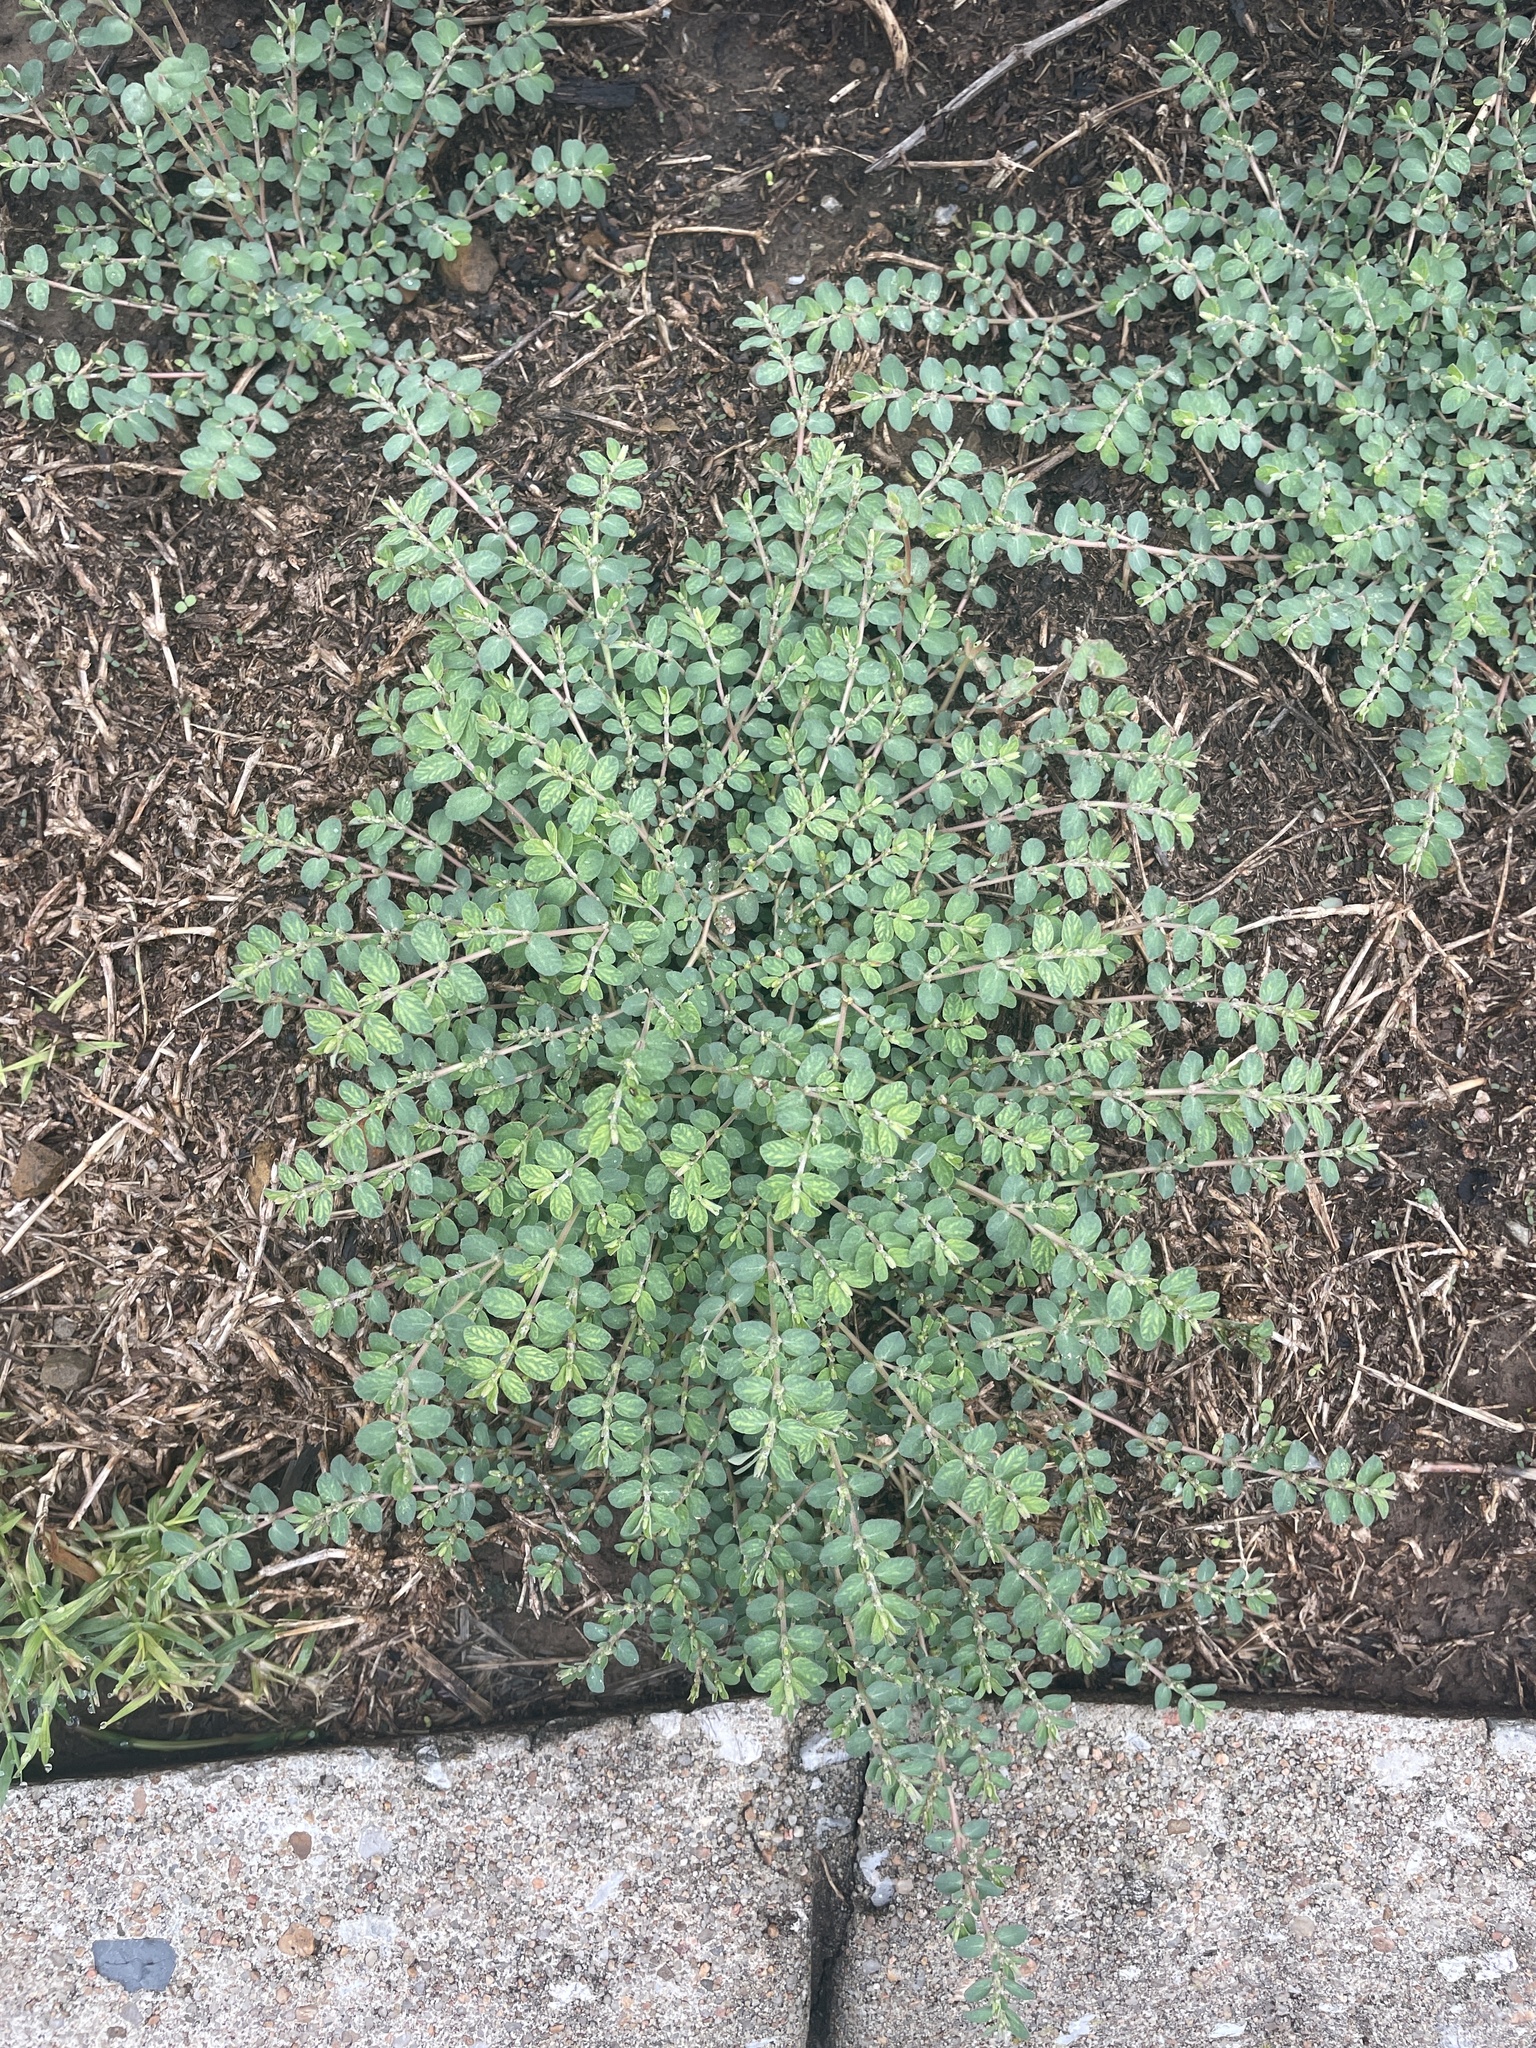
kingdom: Plantae
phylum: Tracheophyta
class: Magnoliopsida
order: Malpighiales
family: Euphorbiaceae
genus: Euphorbia
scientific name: Euphorbia prostrata
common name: Prostrate sandmat
